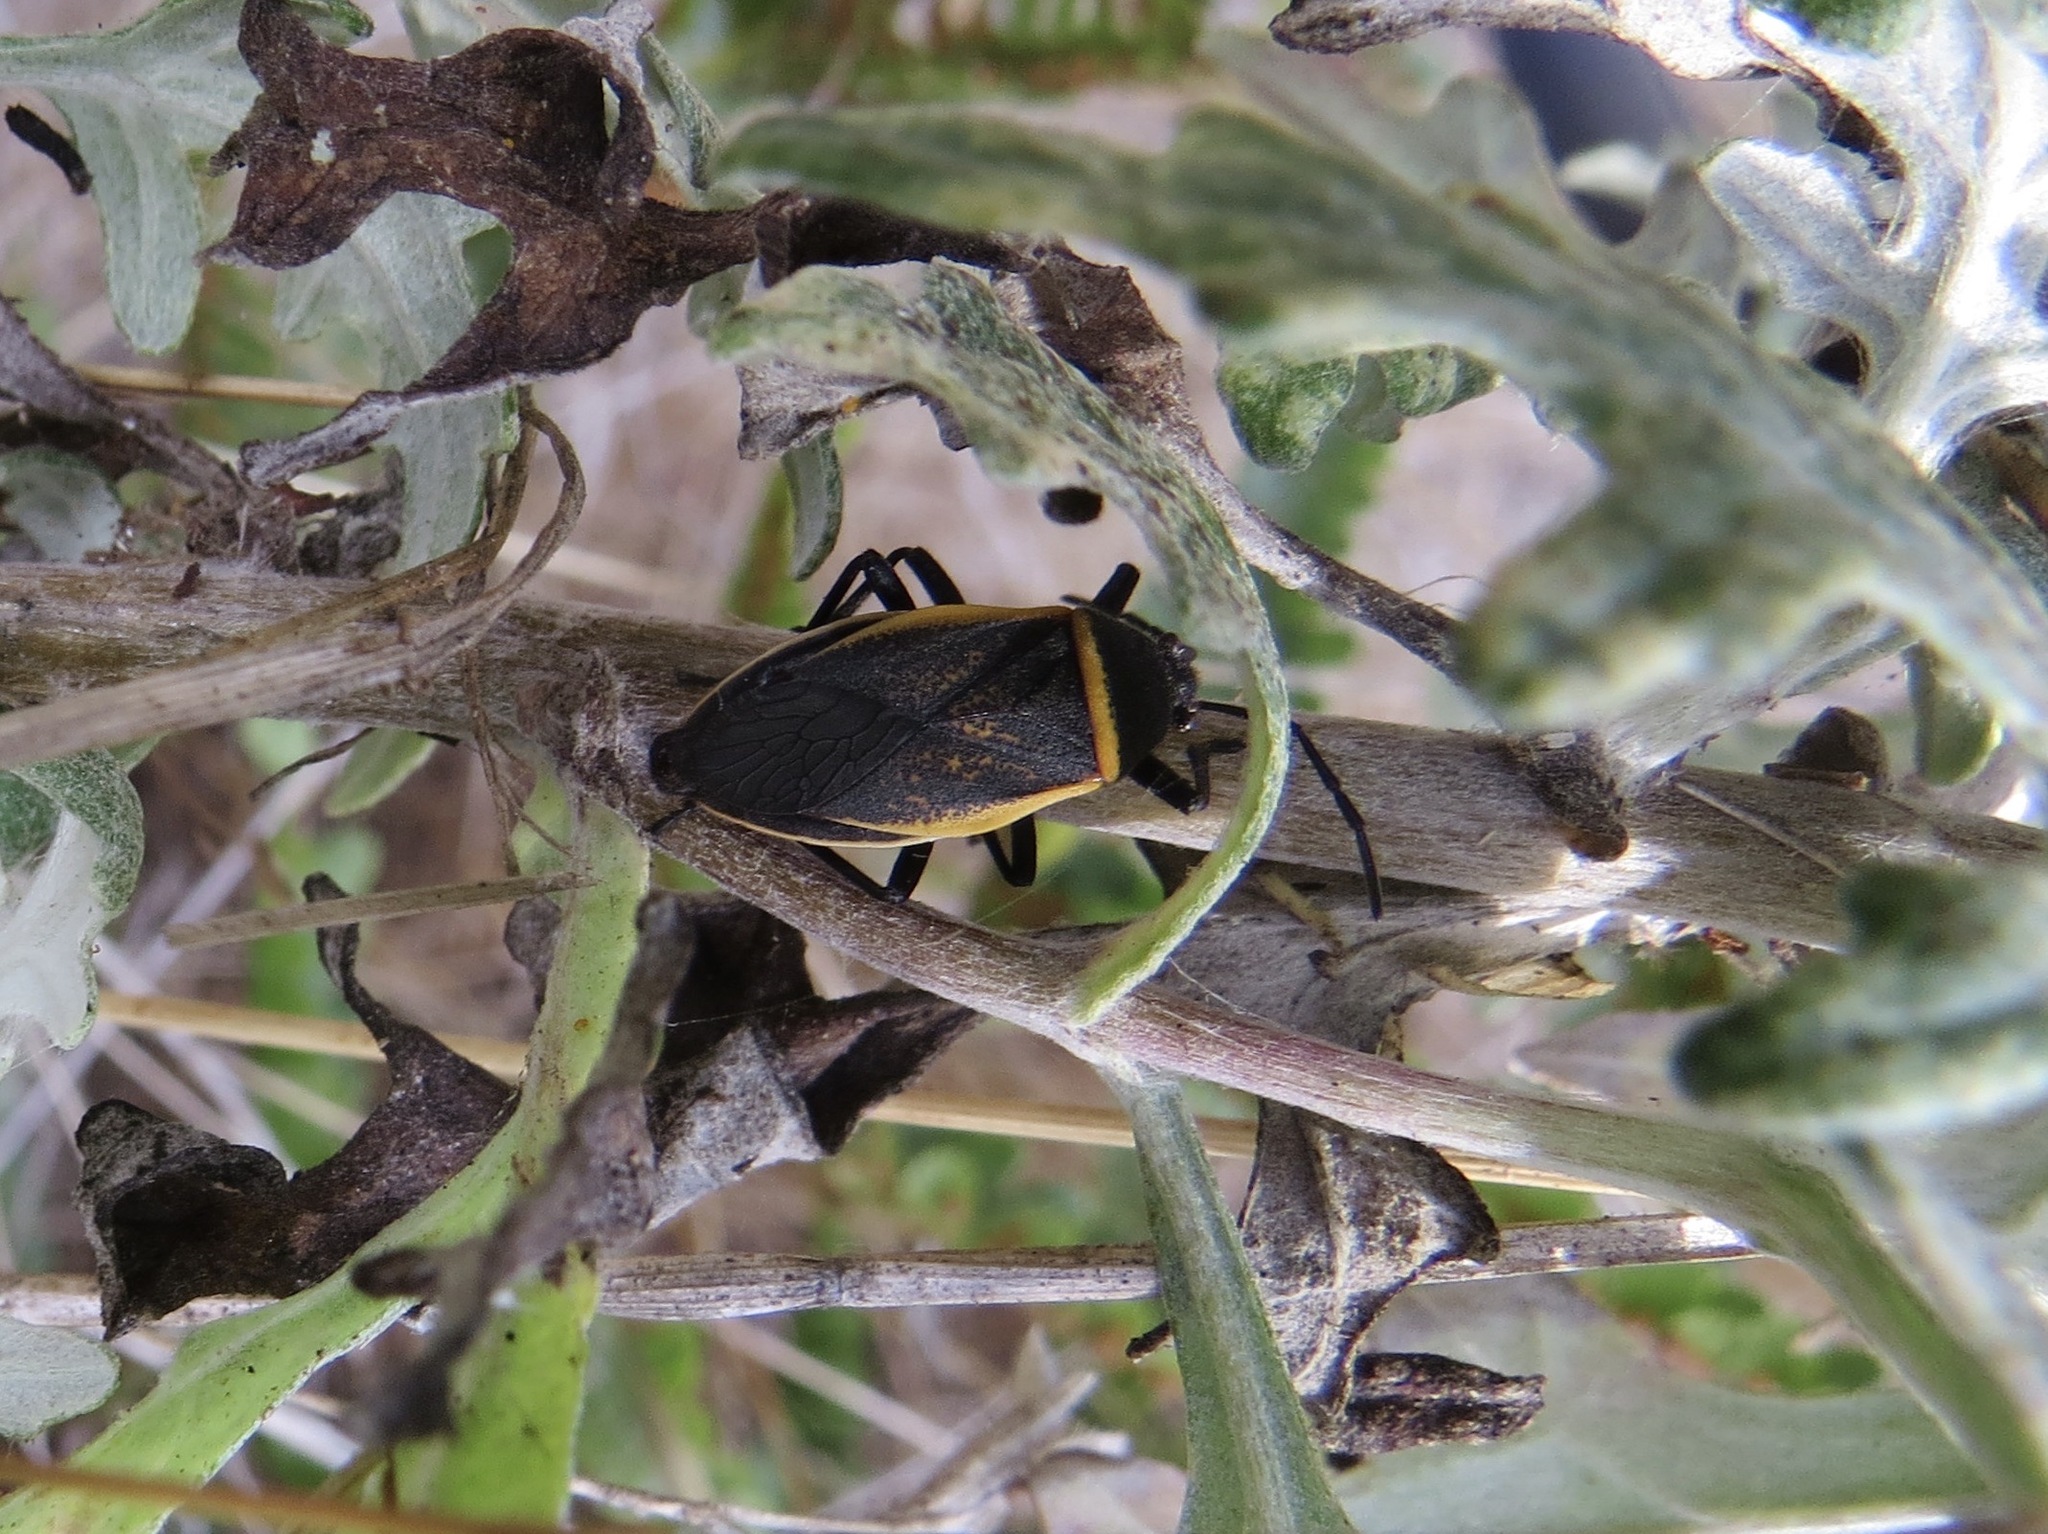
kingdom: Animalia
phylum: Arthropoda
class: Insecta
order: Hemiptera
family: Largidae
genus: Largus
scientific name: Largus californicus
